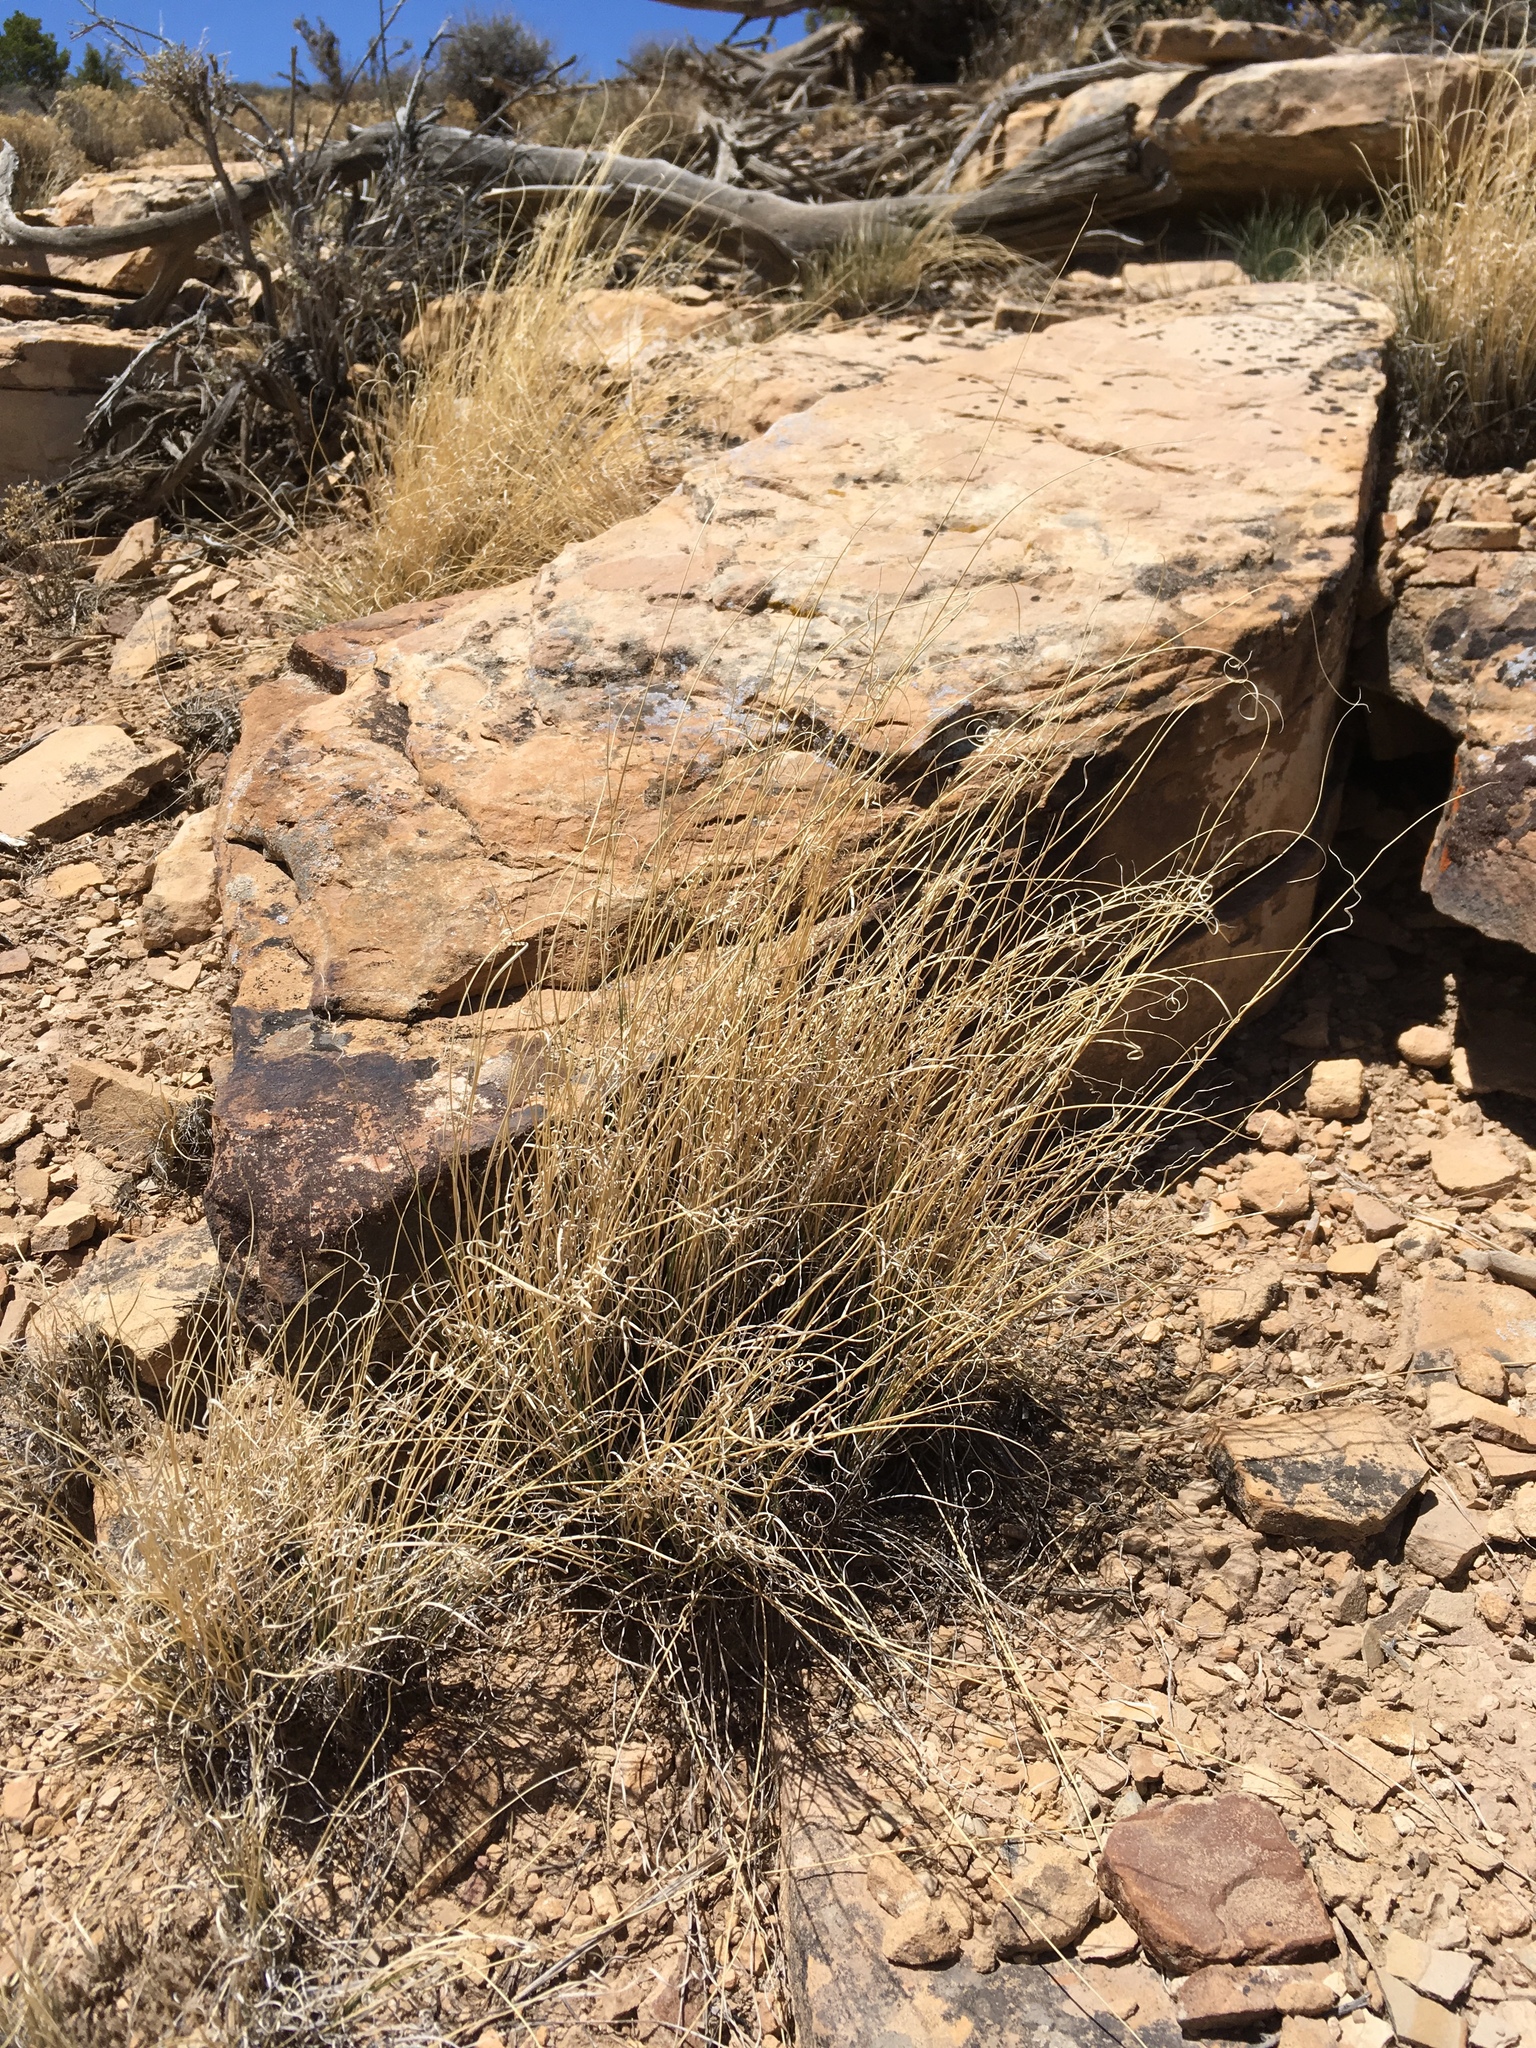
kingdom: Plantae
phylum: Tracheophyta
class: Liliopsida
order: Poales
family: Poaceae
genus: Eriocoma
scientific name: Eriocoma hymenoides
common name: Indian mountain ricegrass
